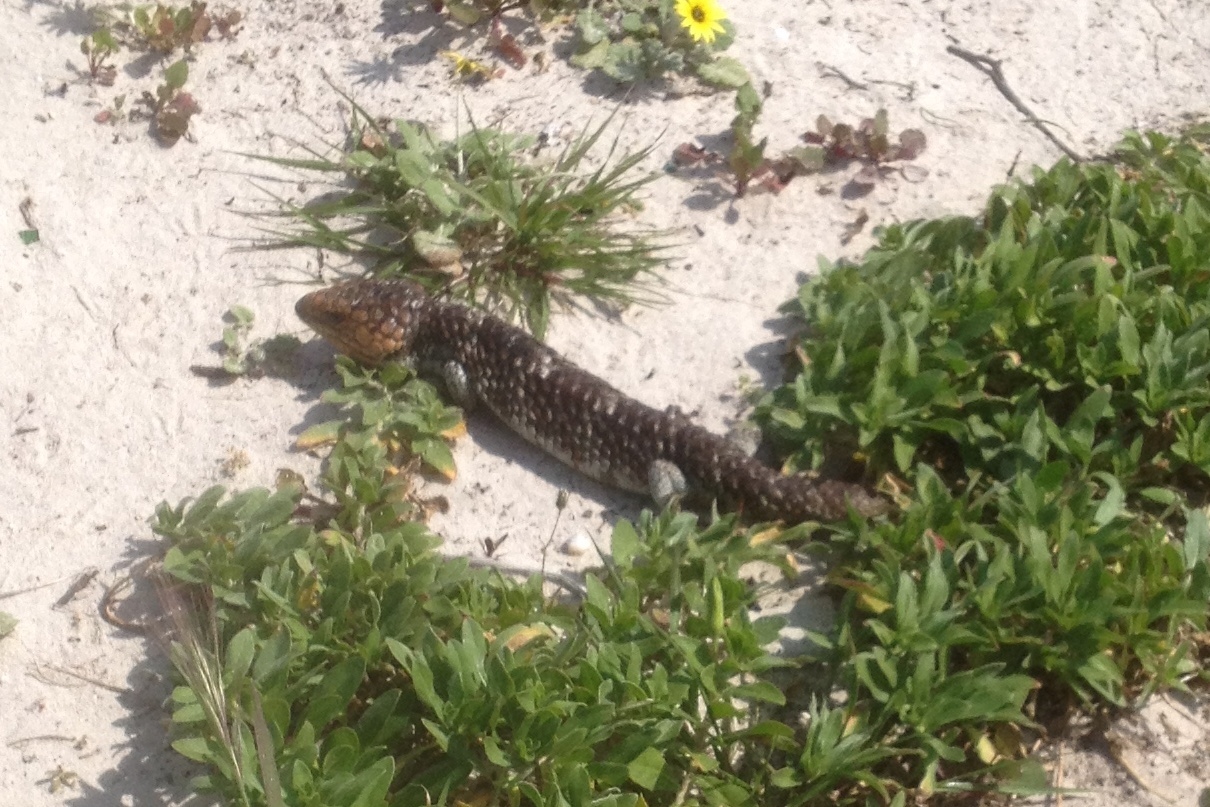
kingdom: Animalia
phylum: Chordata
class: Squamata
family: Scincidae
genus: Tiliqua
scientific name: Tiliqua rugosa
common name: Pinecone lizard
